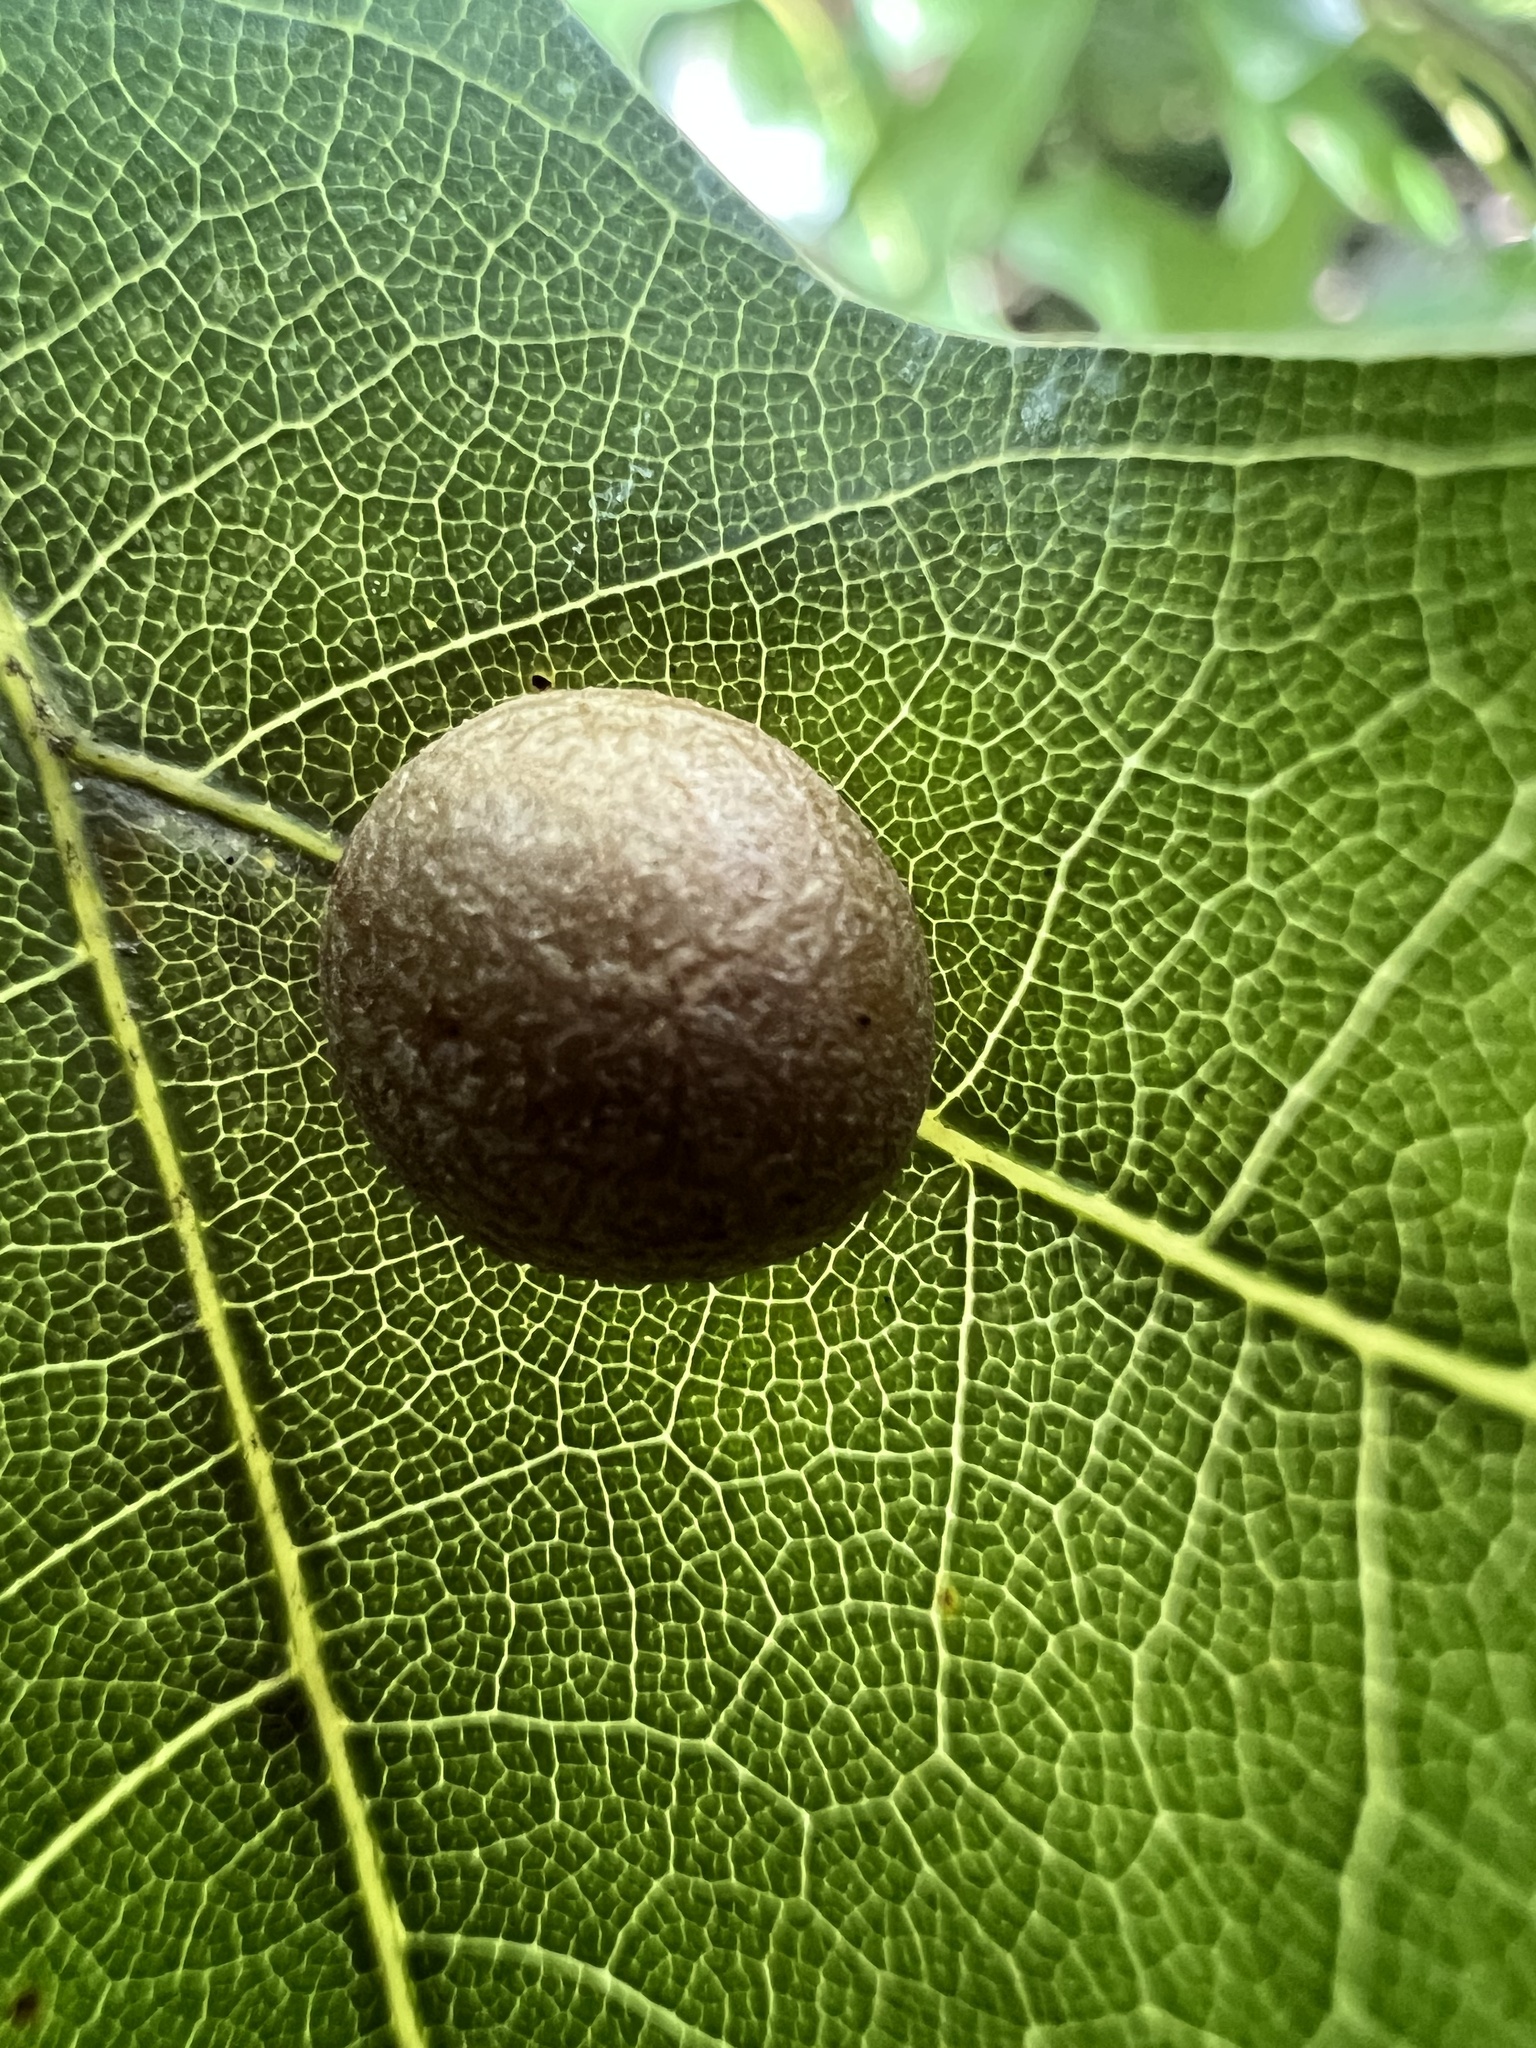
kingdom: Animalia
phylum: Arthropoda
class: Insecta
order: Diptera
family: Cecidomyiidae
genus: Polystepha
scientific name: Polystepha pilulae
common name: Oak leaf gall midge
